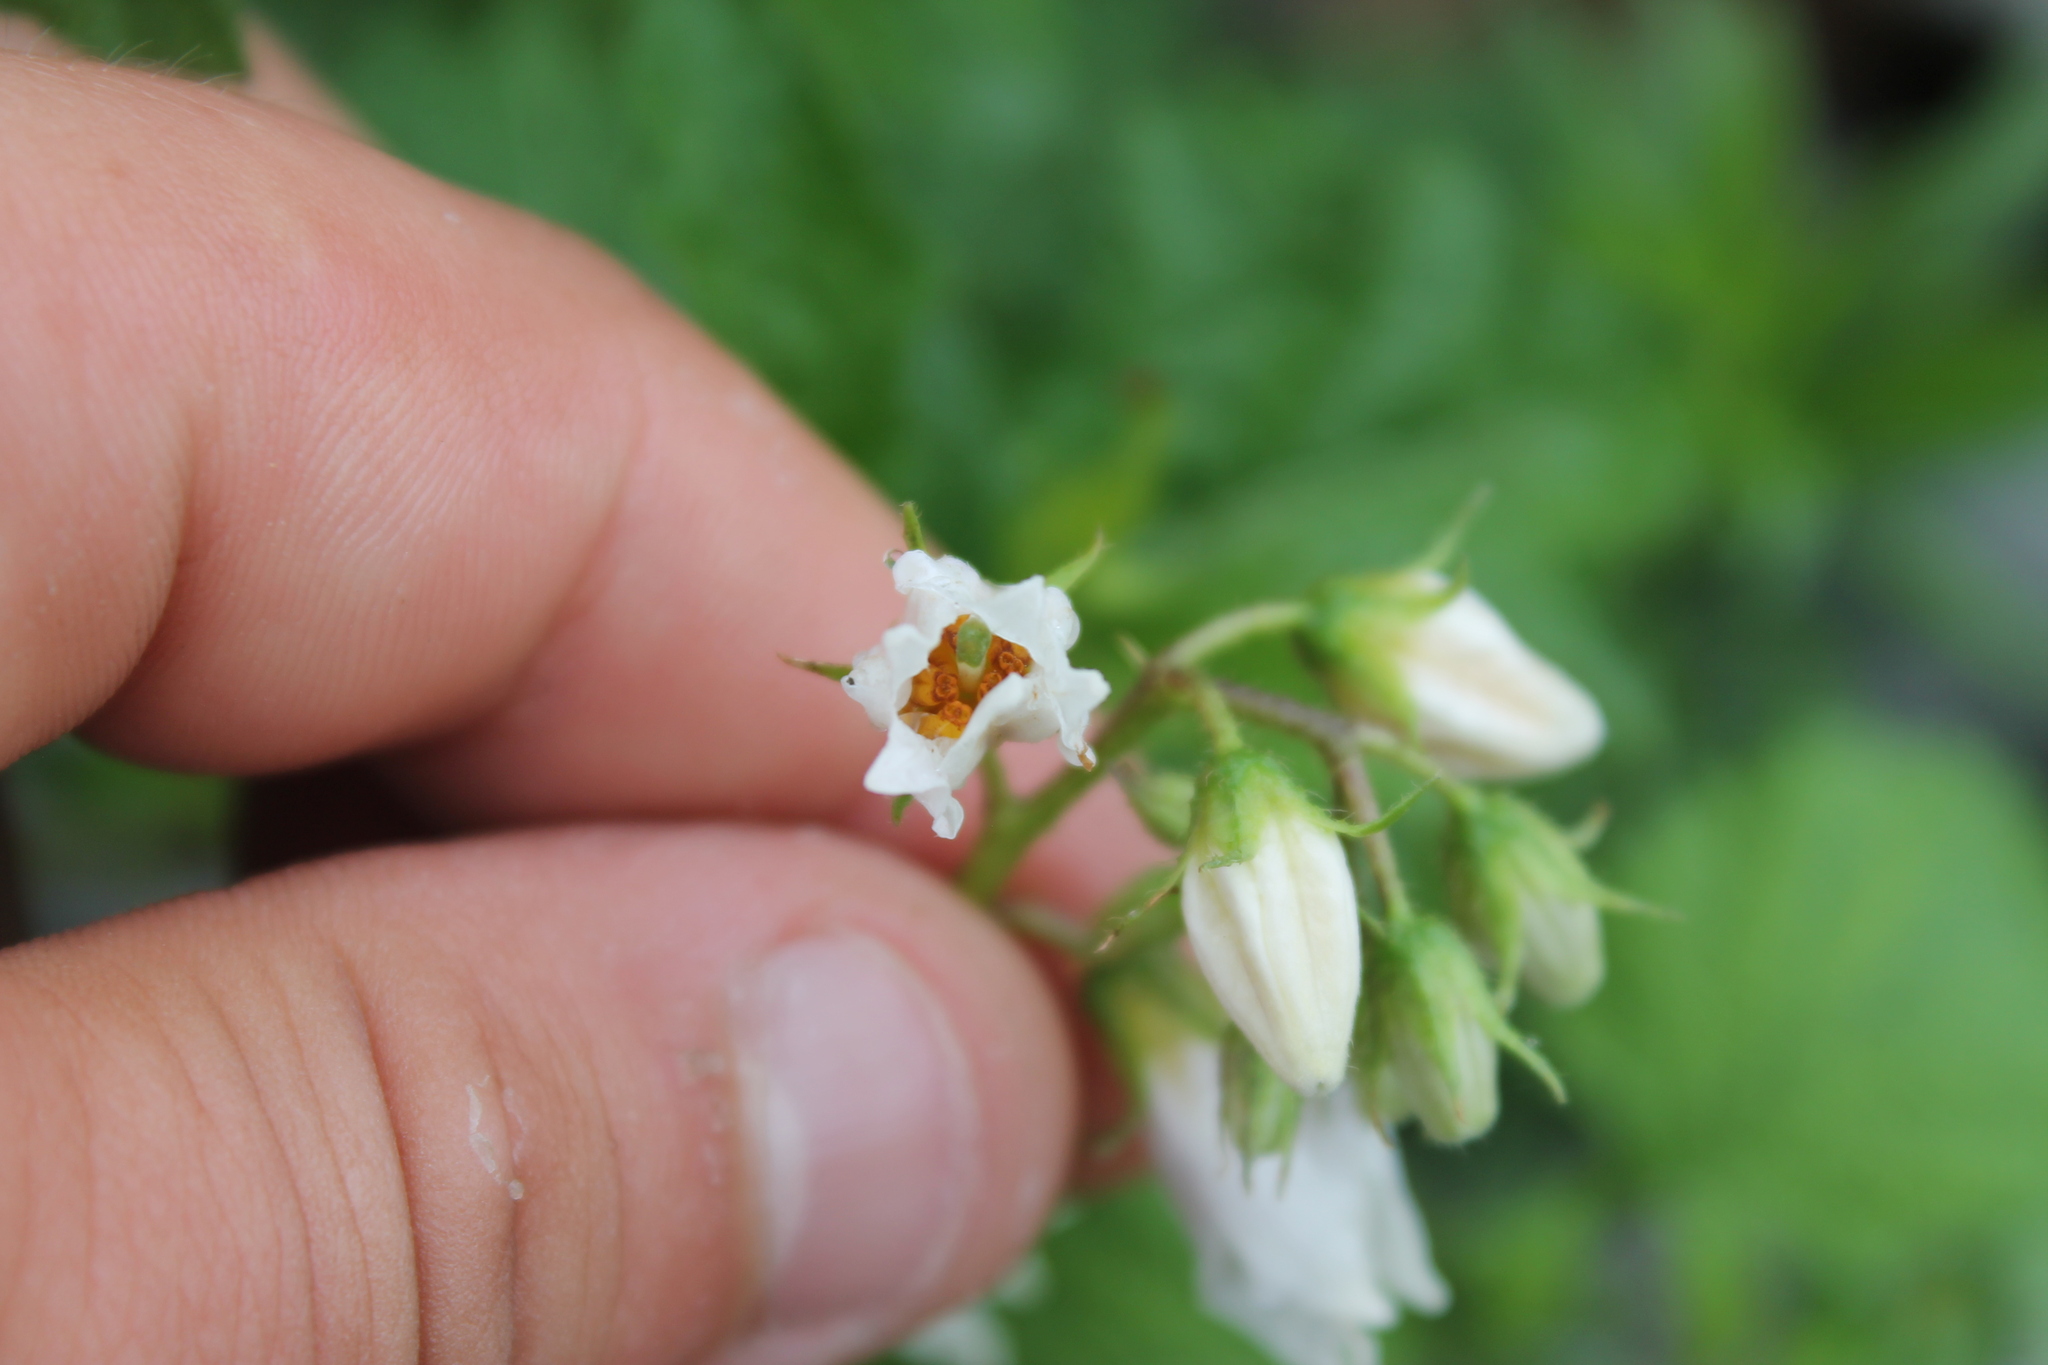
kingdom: Plantae
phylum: Tracheophyta
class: Magnoliopsida
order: Solanales
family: Solanaceae
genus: Solanum
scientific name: Solanum carolinense
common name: Horse-nettle
